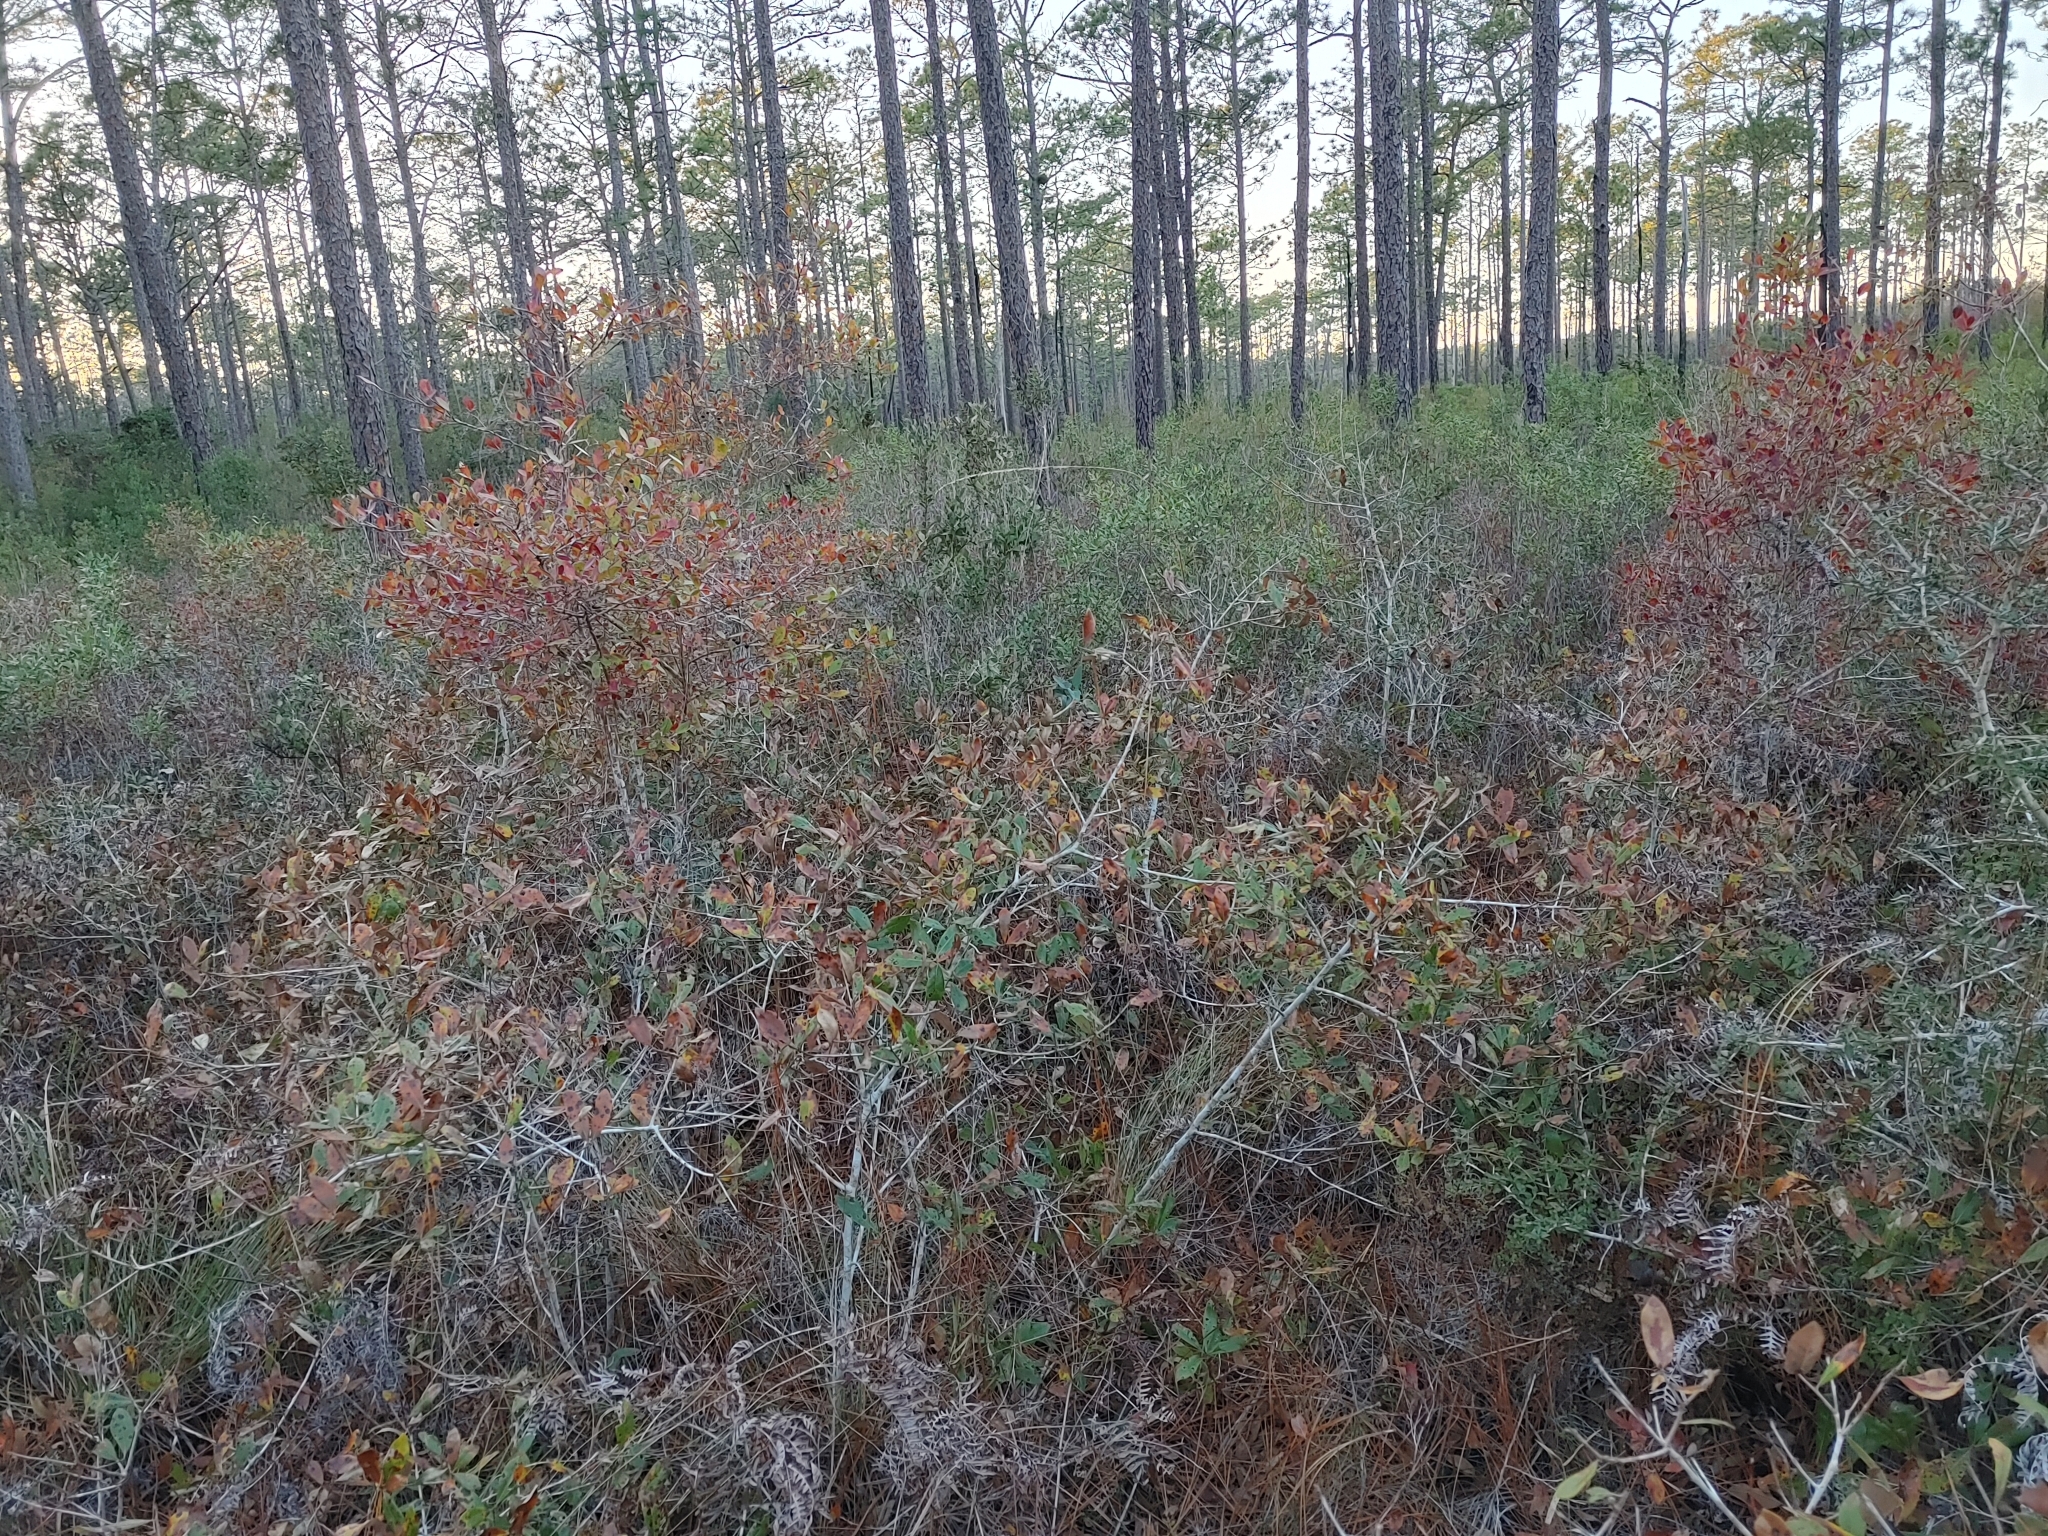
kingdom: Plantae
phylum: Tracheophyta
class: Magnoliopsida
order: Ericales
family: Ericaceae
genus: Vaccinium
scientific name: Vaccinium arboreum
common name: Farkleberry
